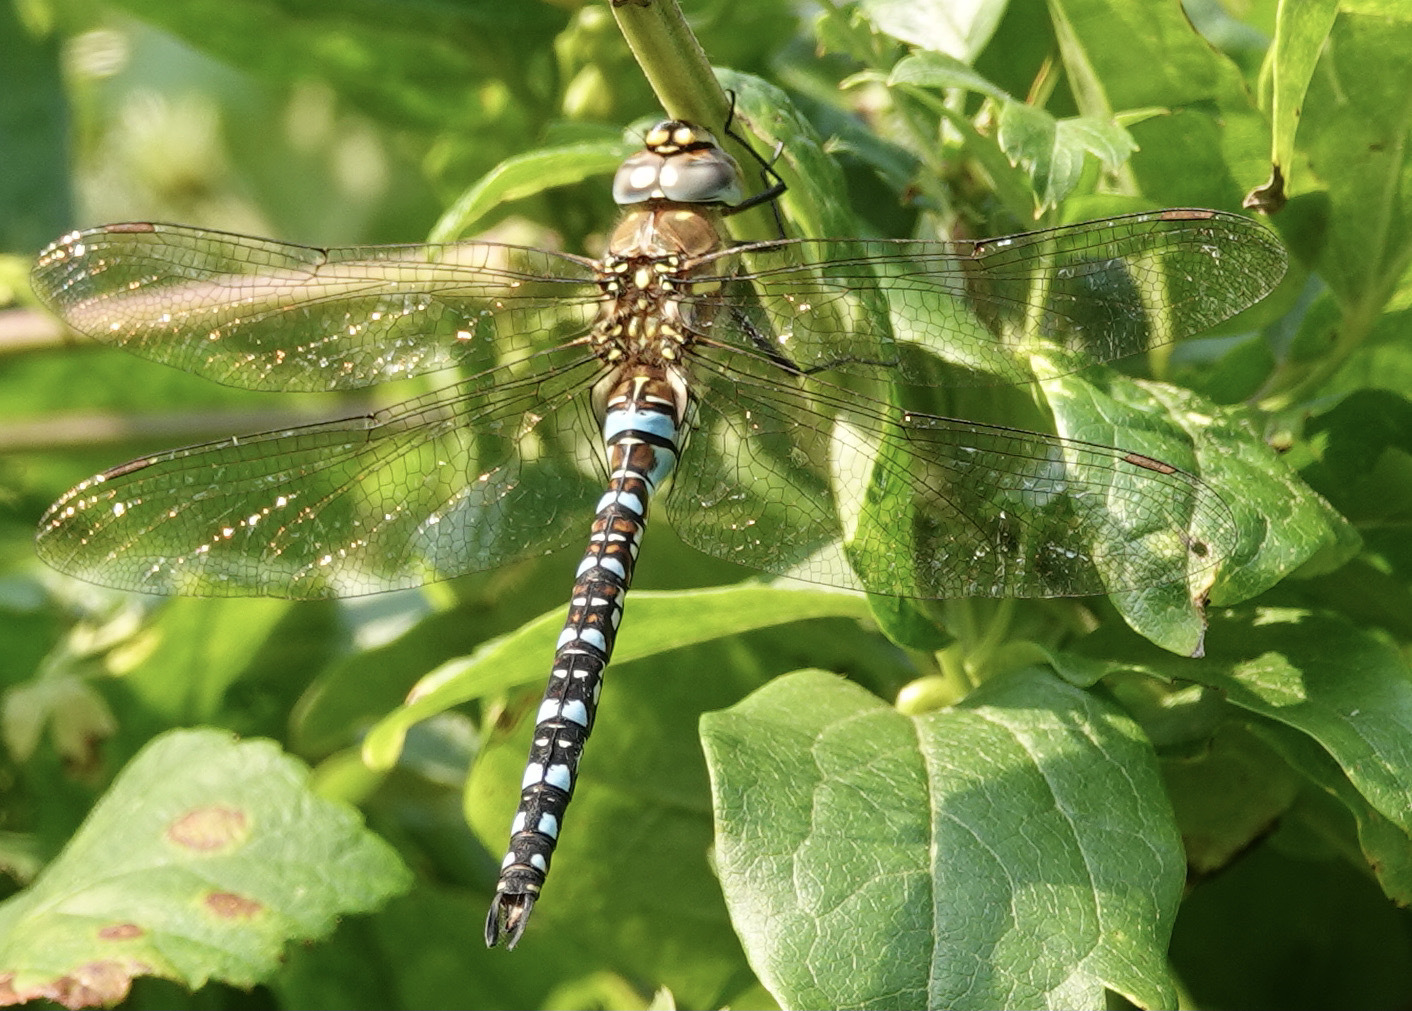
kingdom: Animalia
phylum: Arthropoda
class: Insecta
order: Odonata
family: Aeshnidae
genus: Aeshna
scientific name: Aeshna mixta
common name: Migrant hawker
